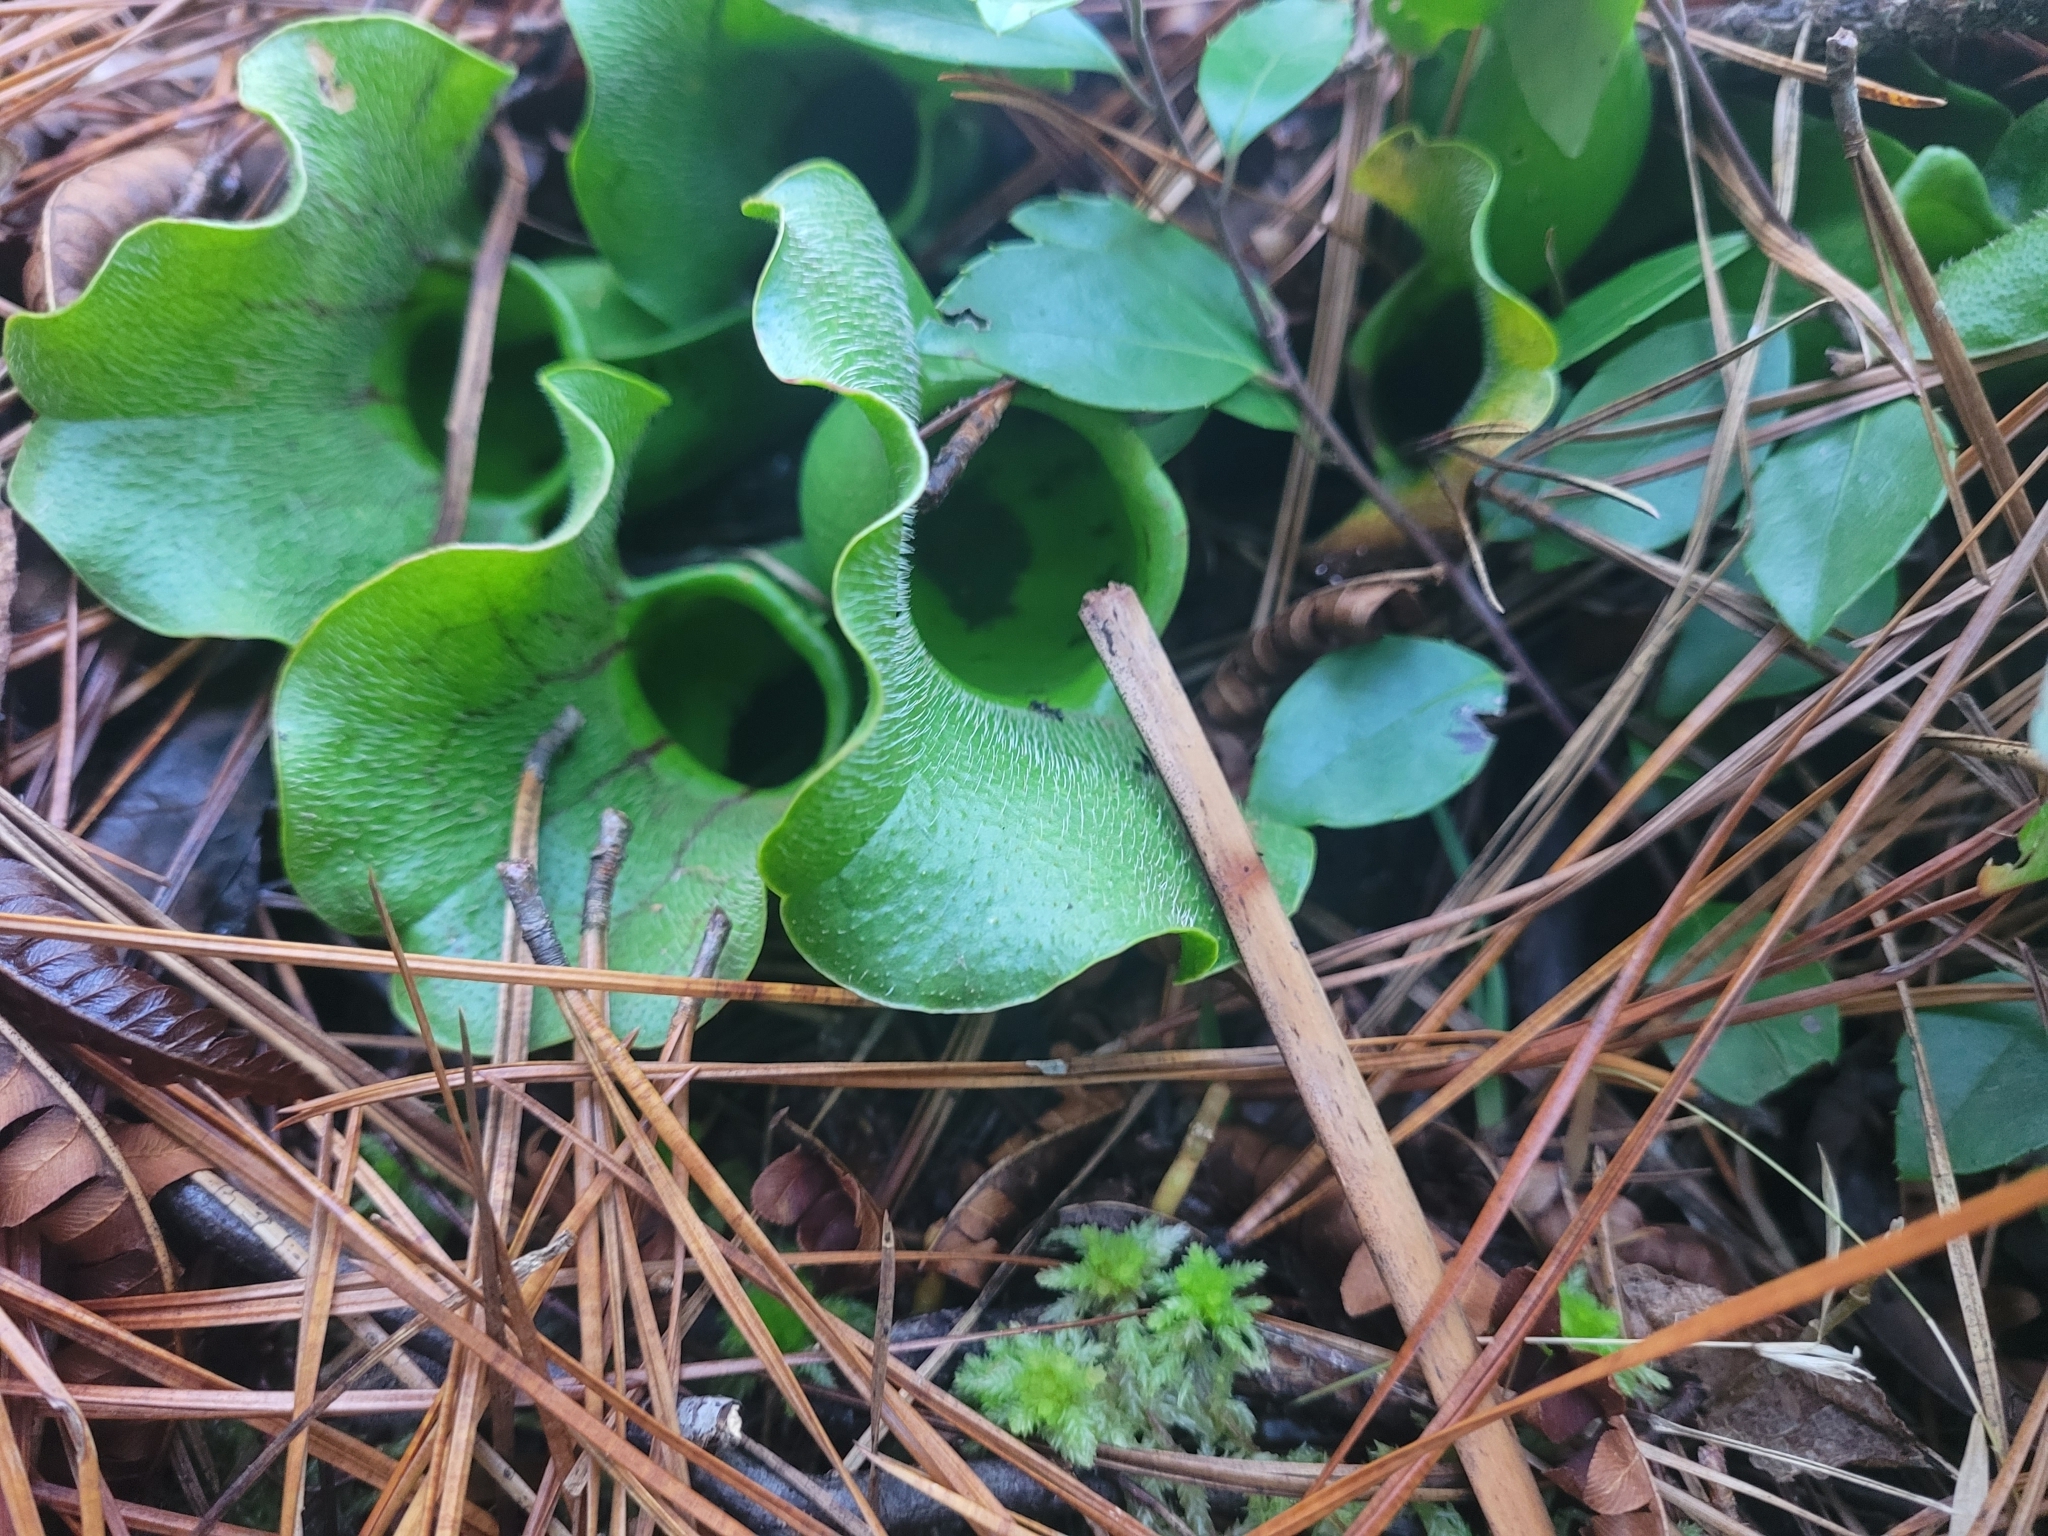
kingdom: Plantae
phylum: Tracheophyta
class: Magnoliopsida
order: Ericales
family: Sarraceniaceae
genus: Sarracenia
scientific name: Sarracenia purpurea
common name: Pitcherplant
